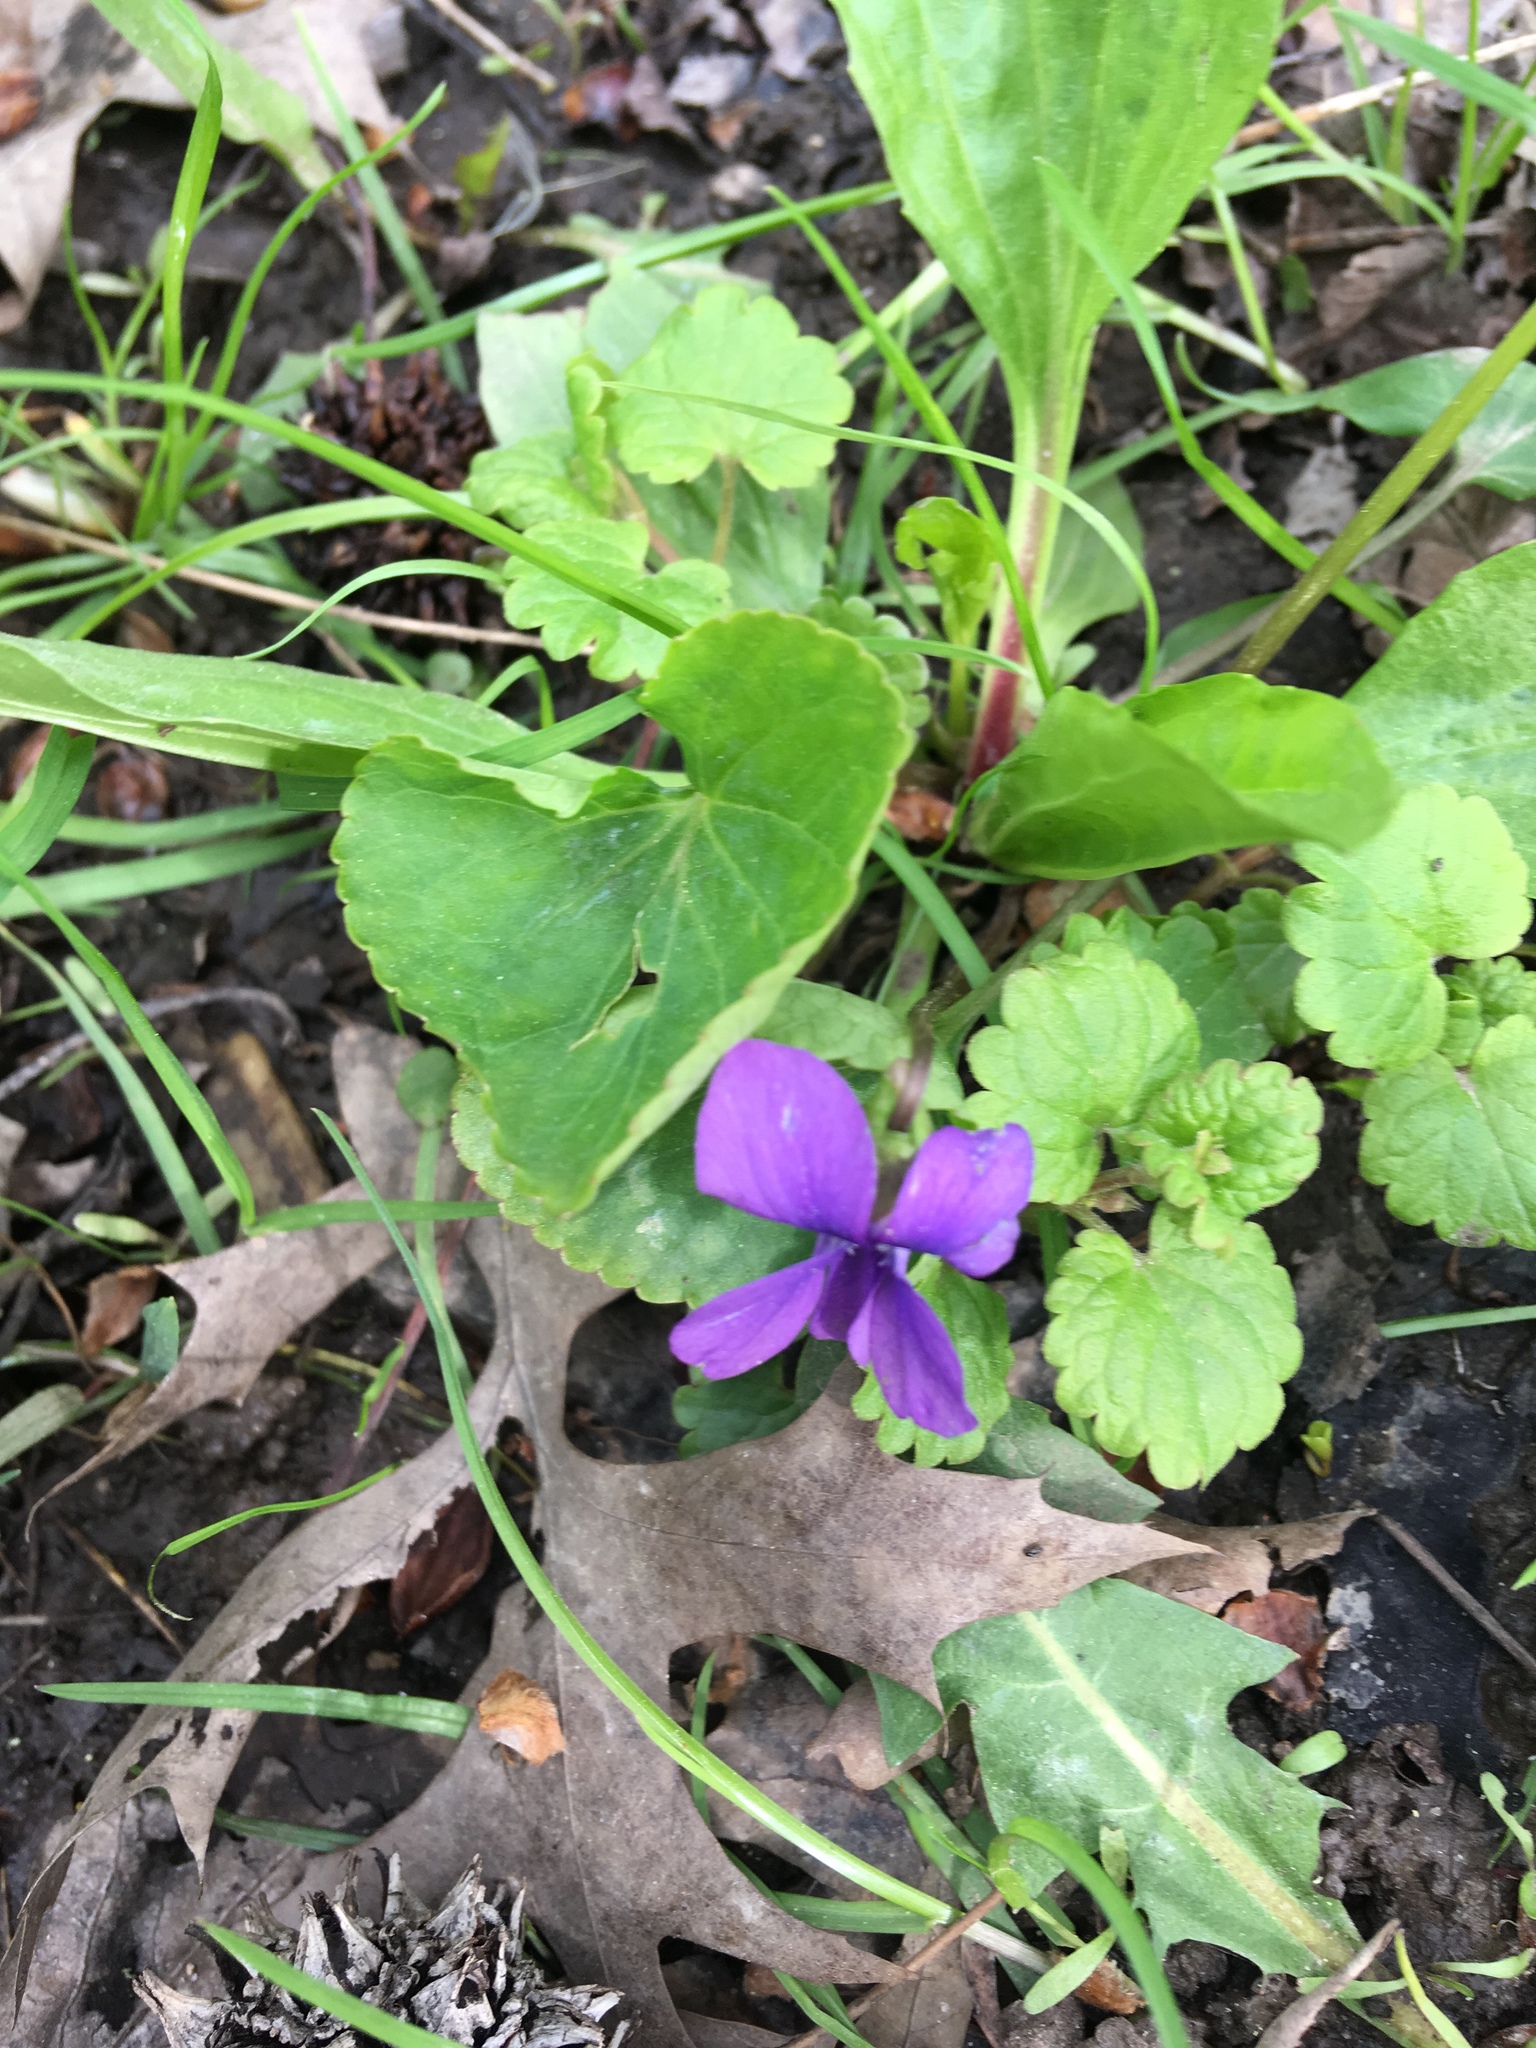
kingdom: Plantae
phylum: Tracheophyta
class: Magnoliopsida
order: Malpighiales
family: Violaceae
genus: Viola
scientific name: Viola sororia
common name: Dooryard violet
